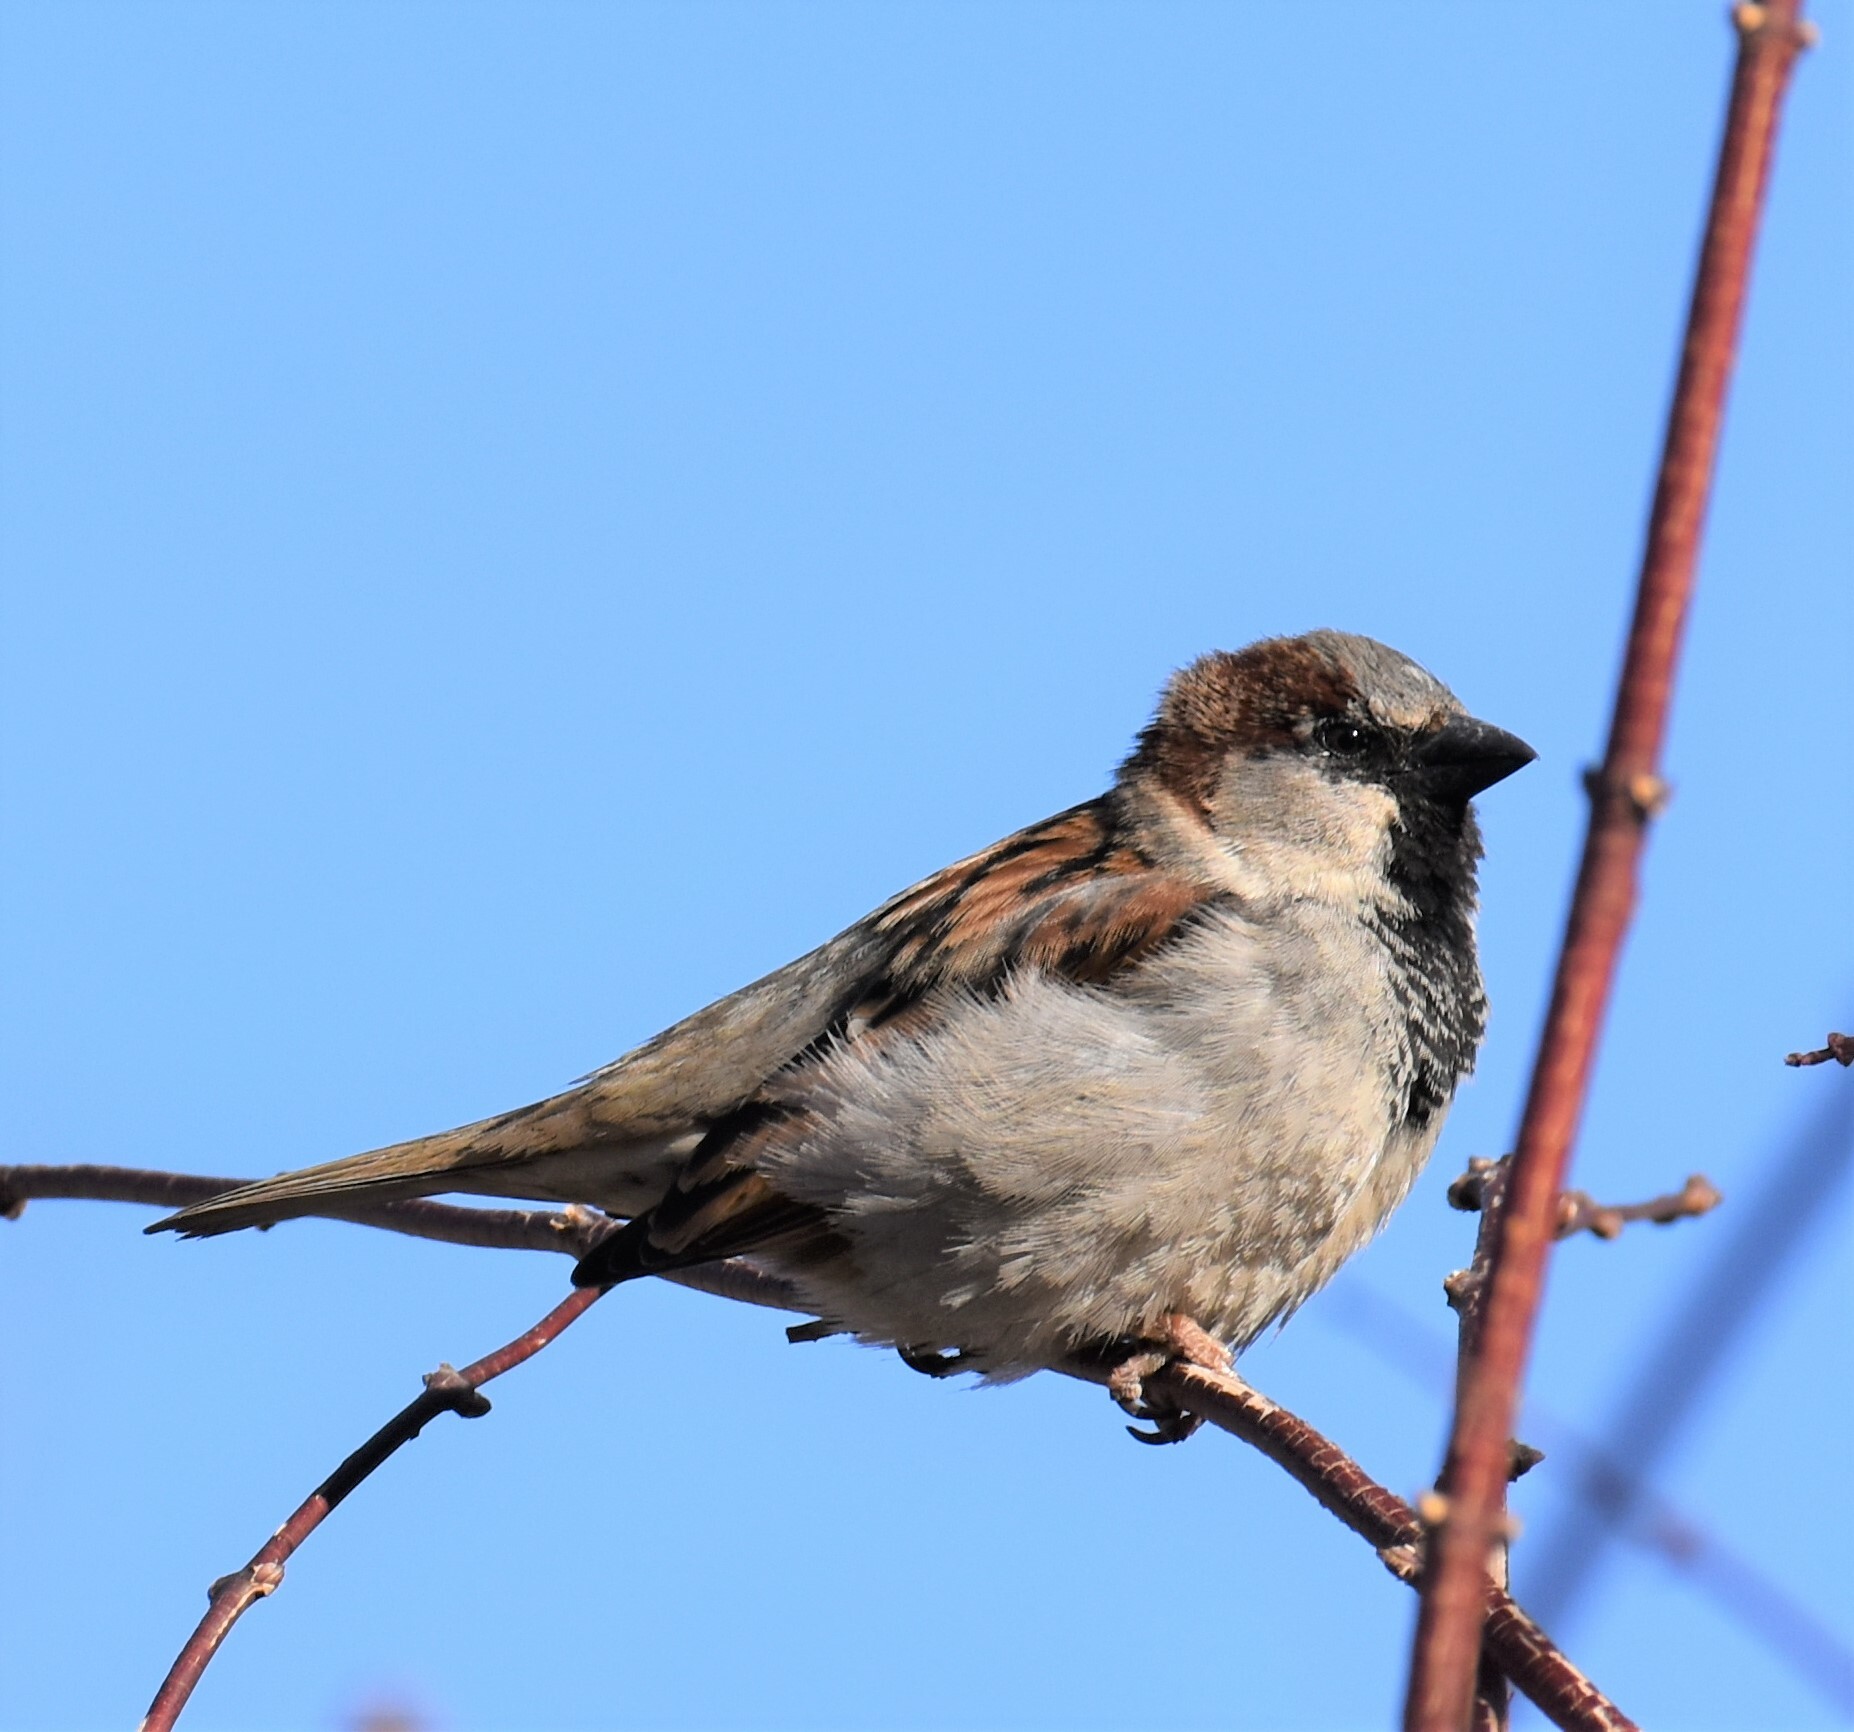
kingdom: Animalia
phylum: Chordata
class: Aves
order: Passeriformes
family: Passeridae
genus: Passer
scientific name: Passer domesticus
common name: House sparrow
